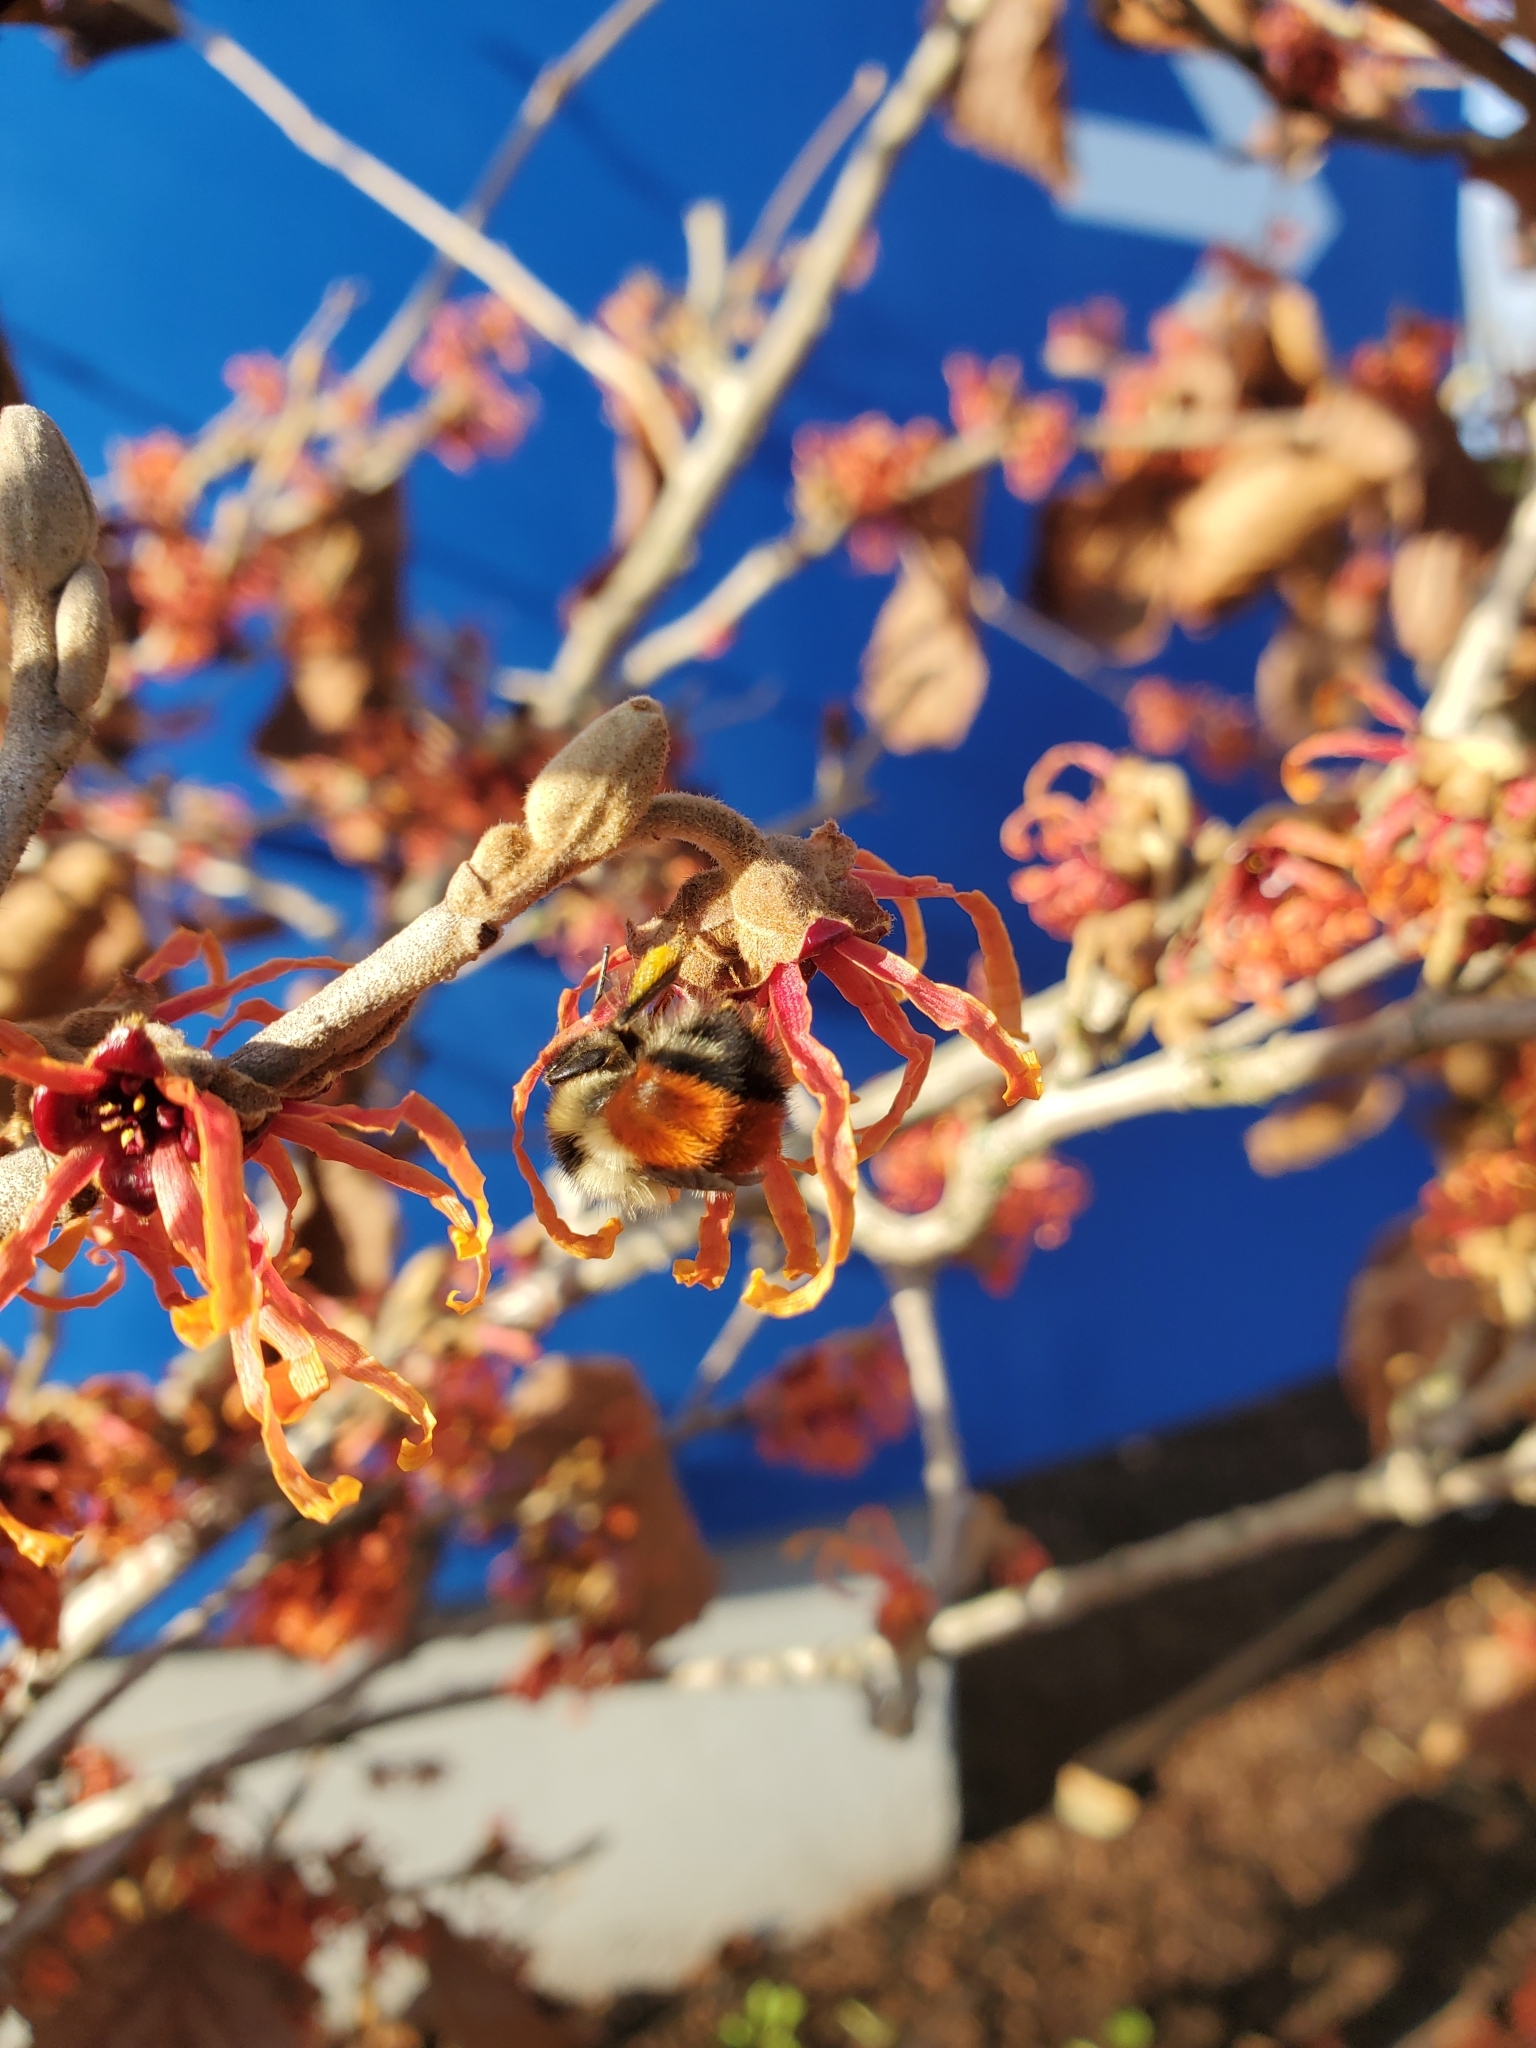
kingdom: Animalia
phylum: Arthropoda
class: Insecta
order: Hymenoptera
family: Apidae
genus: Bombus
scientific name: Bombus melanopygus
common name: Black tail bumble bee
